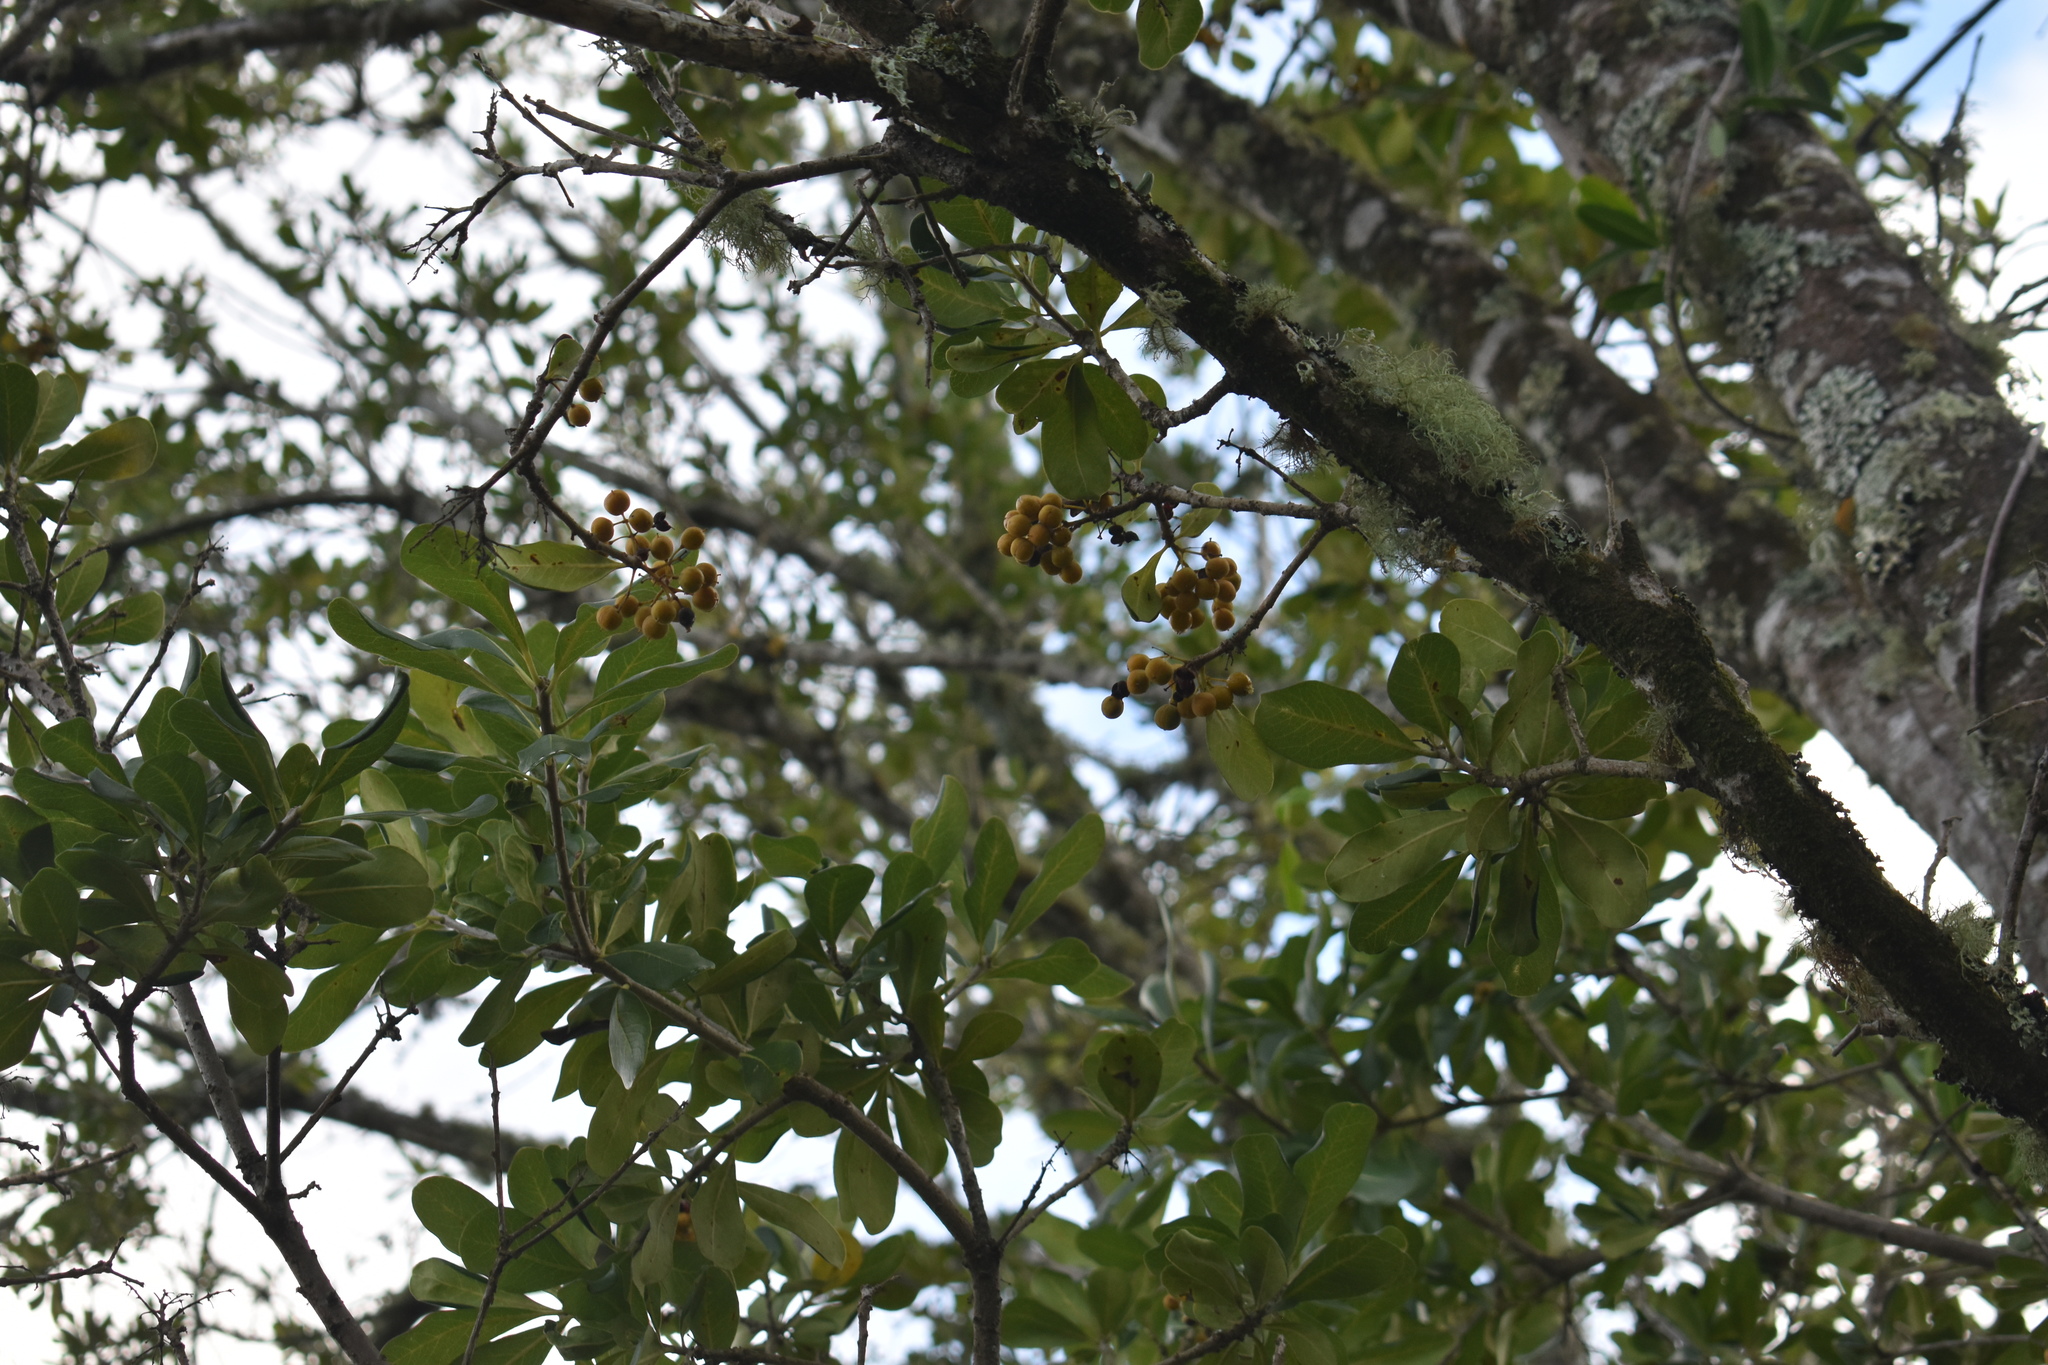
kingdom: Plantae
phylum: Tracheophyta
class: Magnoliopsida
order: Apiales
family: Pittosporaceae
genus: Pittosporum
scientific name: Pittosporum viridiflorum
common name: Cape cheesewood
